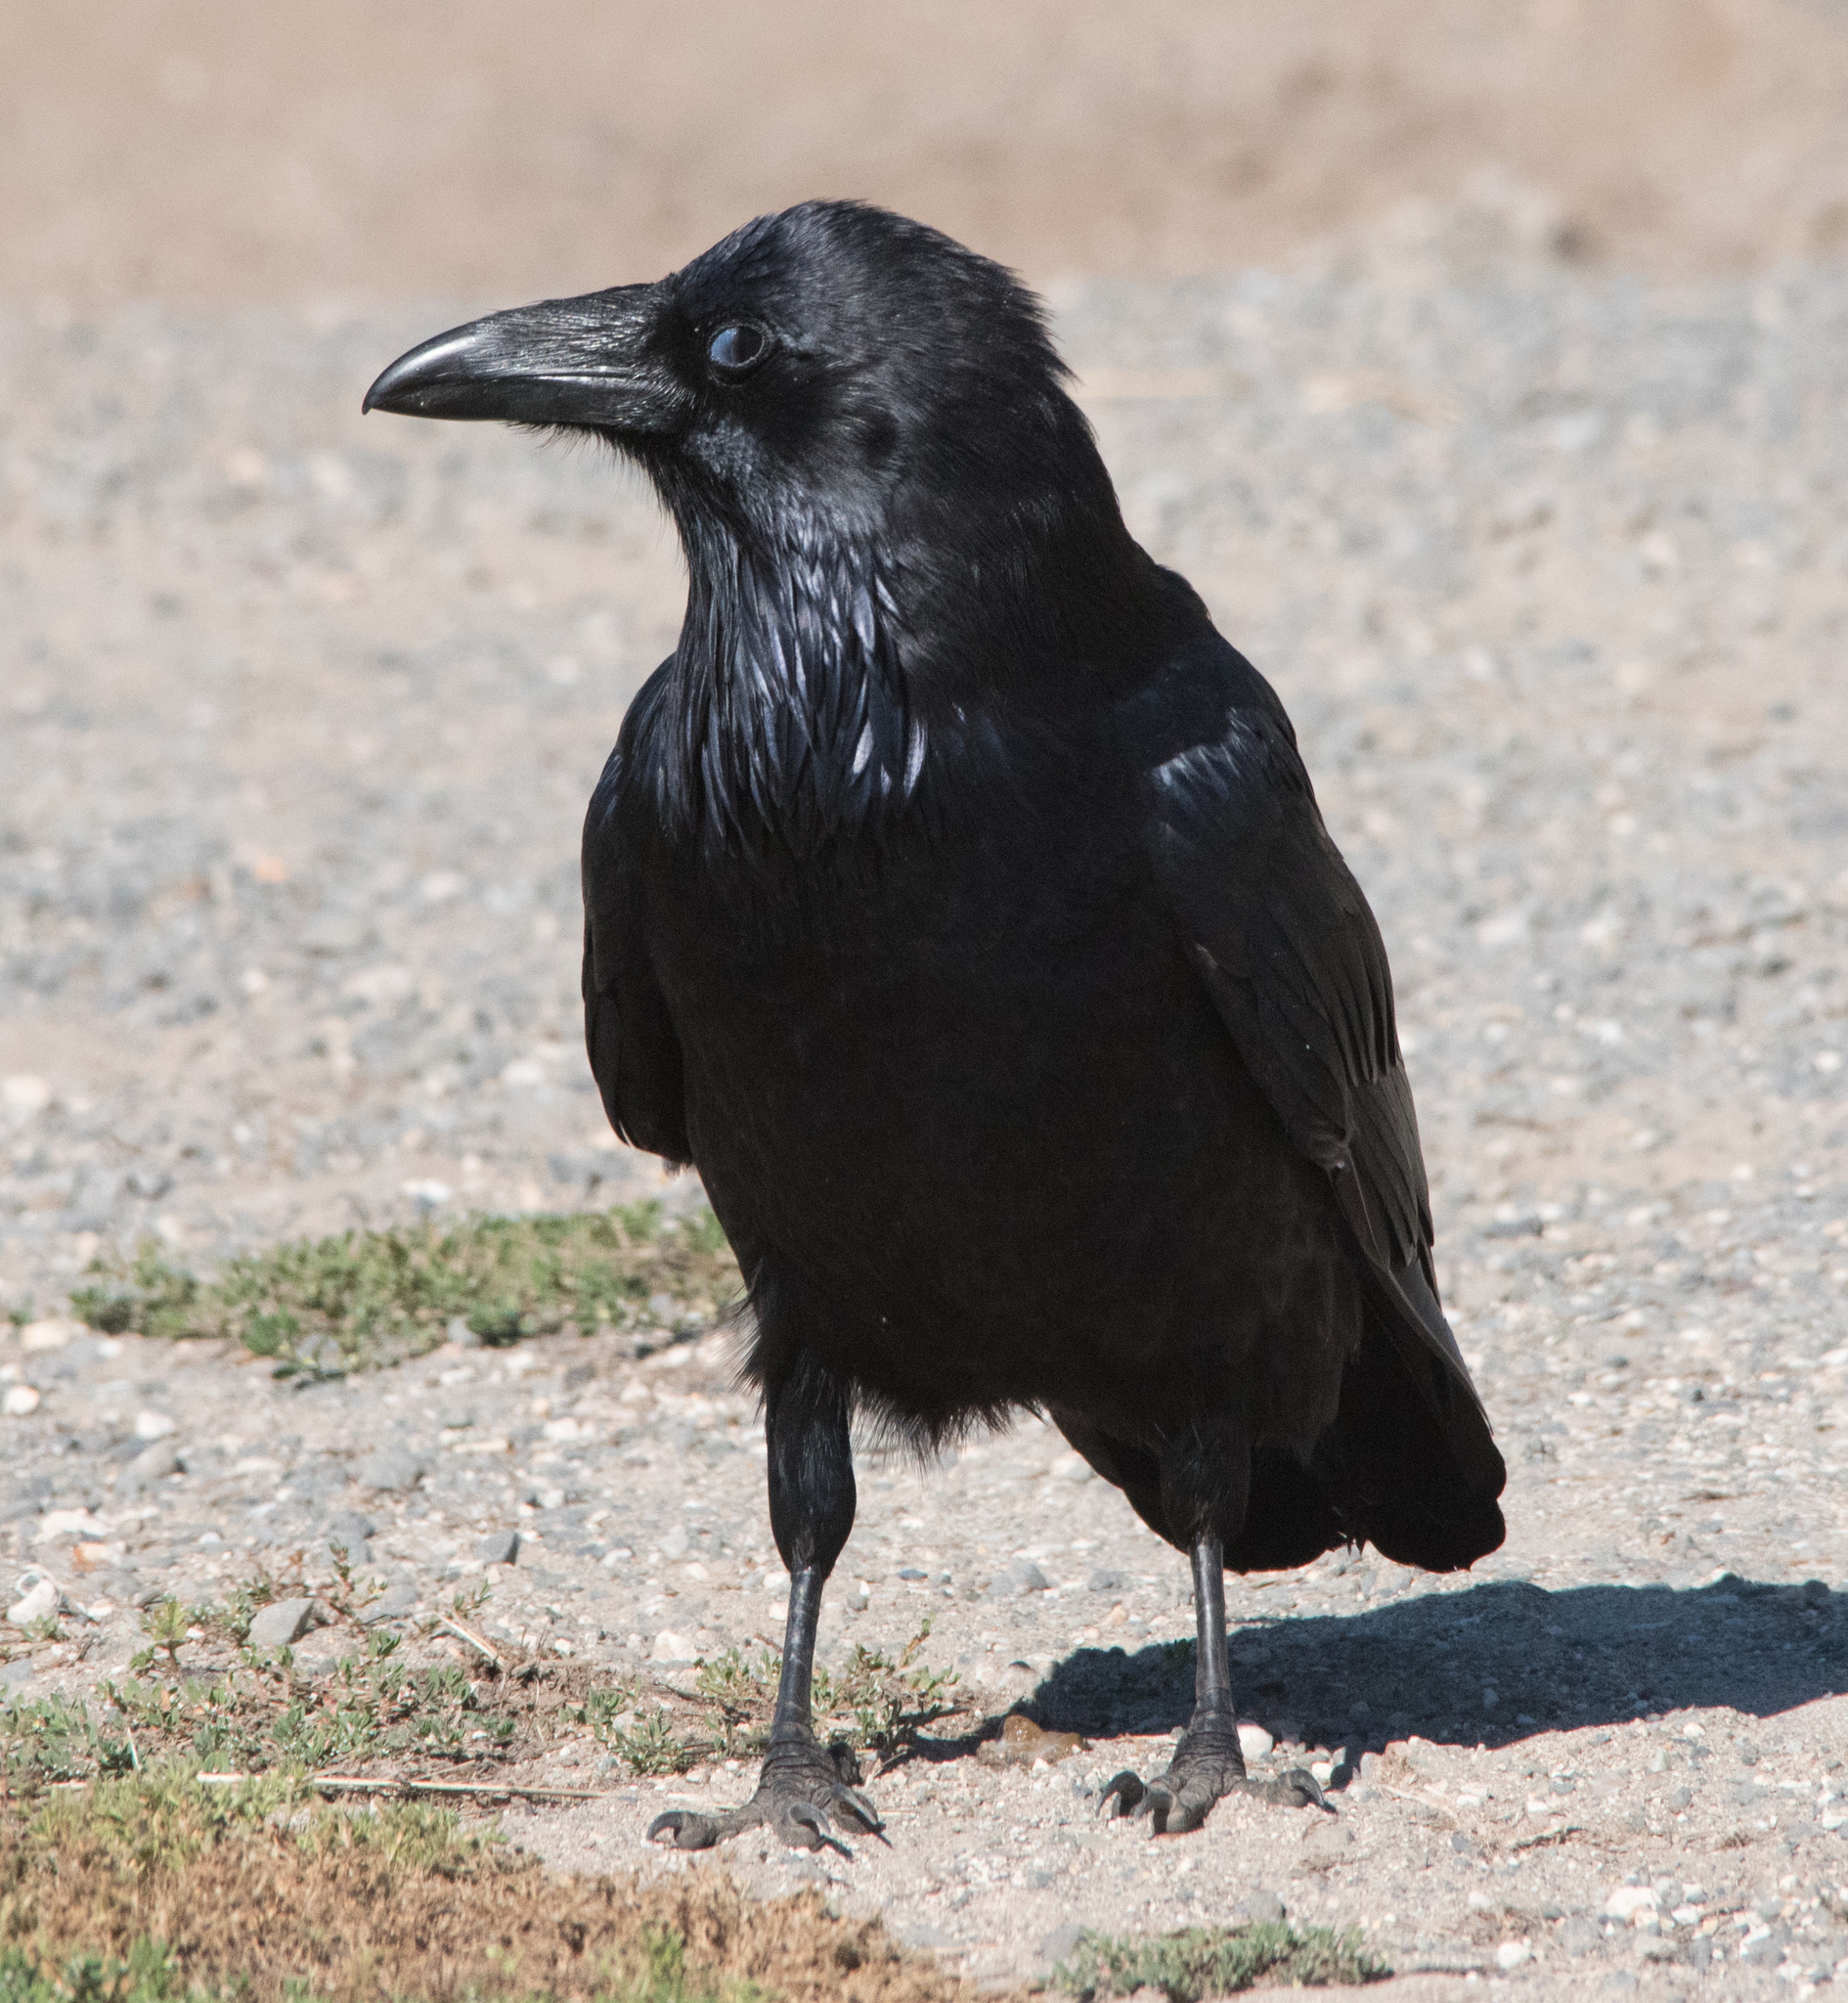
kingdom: Animalia
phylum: Chordata
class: Aves
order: Passeriformes
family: Corvidae
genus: Corvus
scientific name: Corvus corax
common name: Common raven
